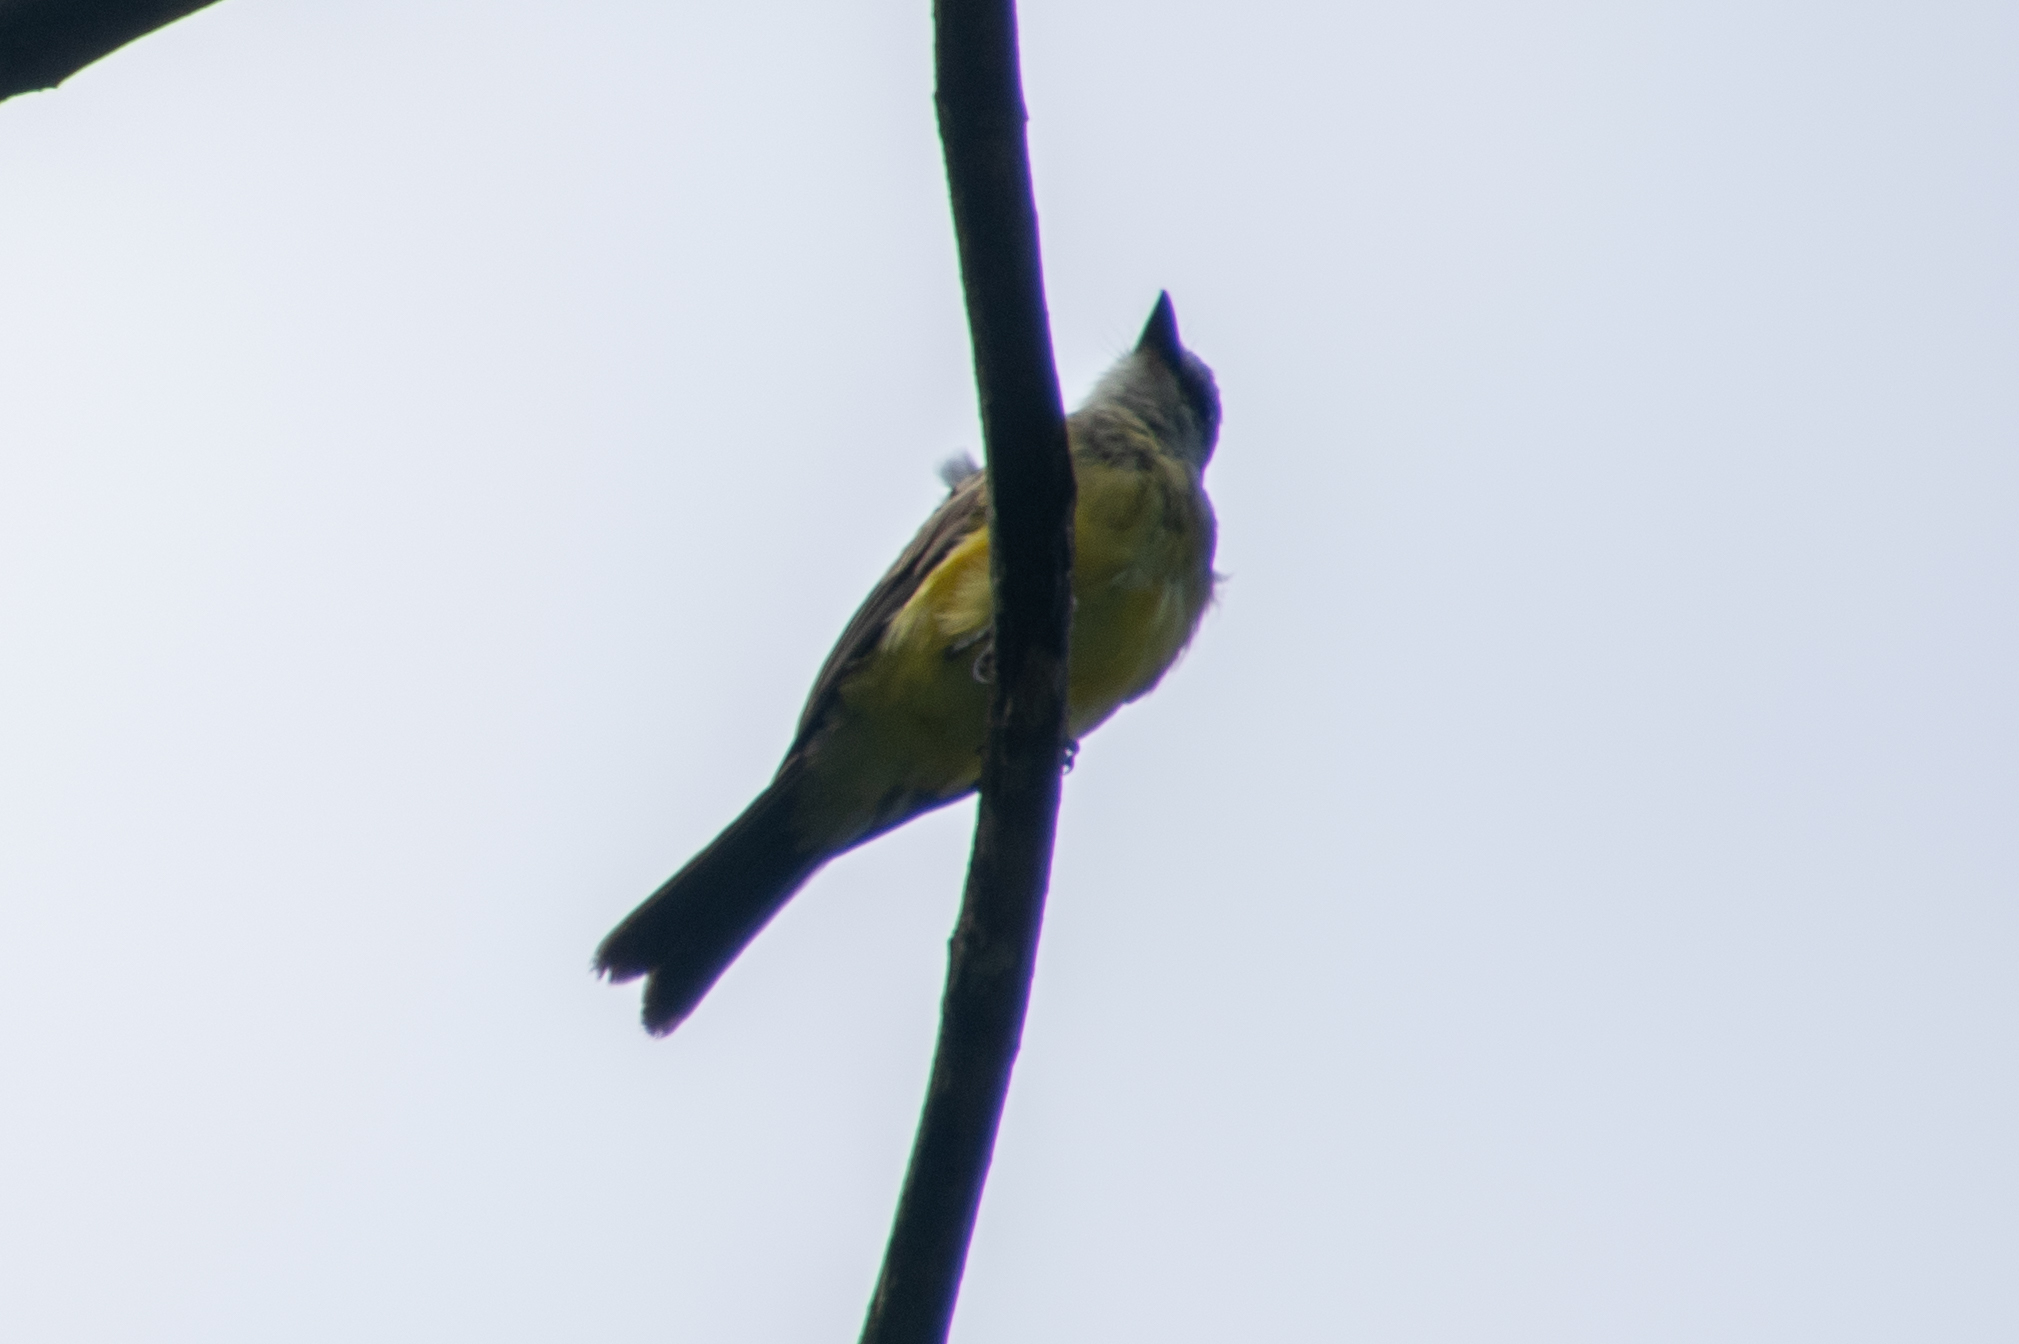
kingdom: Animalia
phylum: Chordata
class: Aves
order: Passeriformes
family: Tyrannidae
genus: Tyrannus
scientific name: Tyrannus melancholicus
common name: Tropical kingbird
